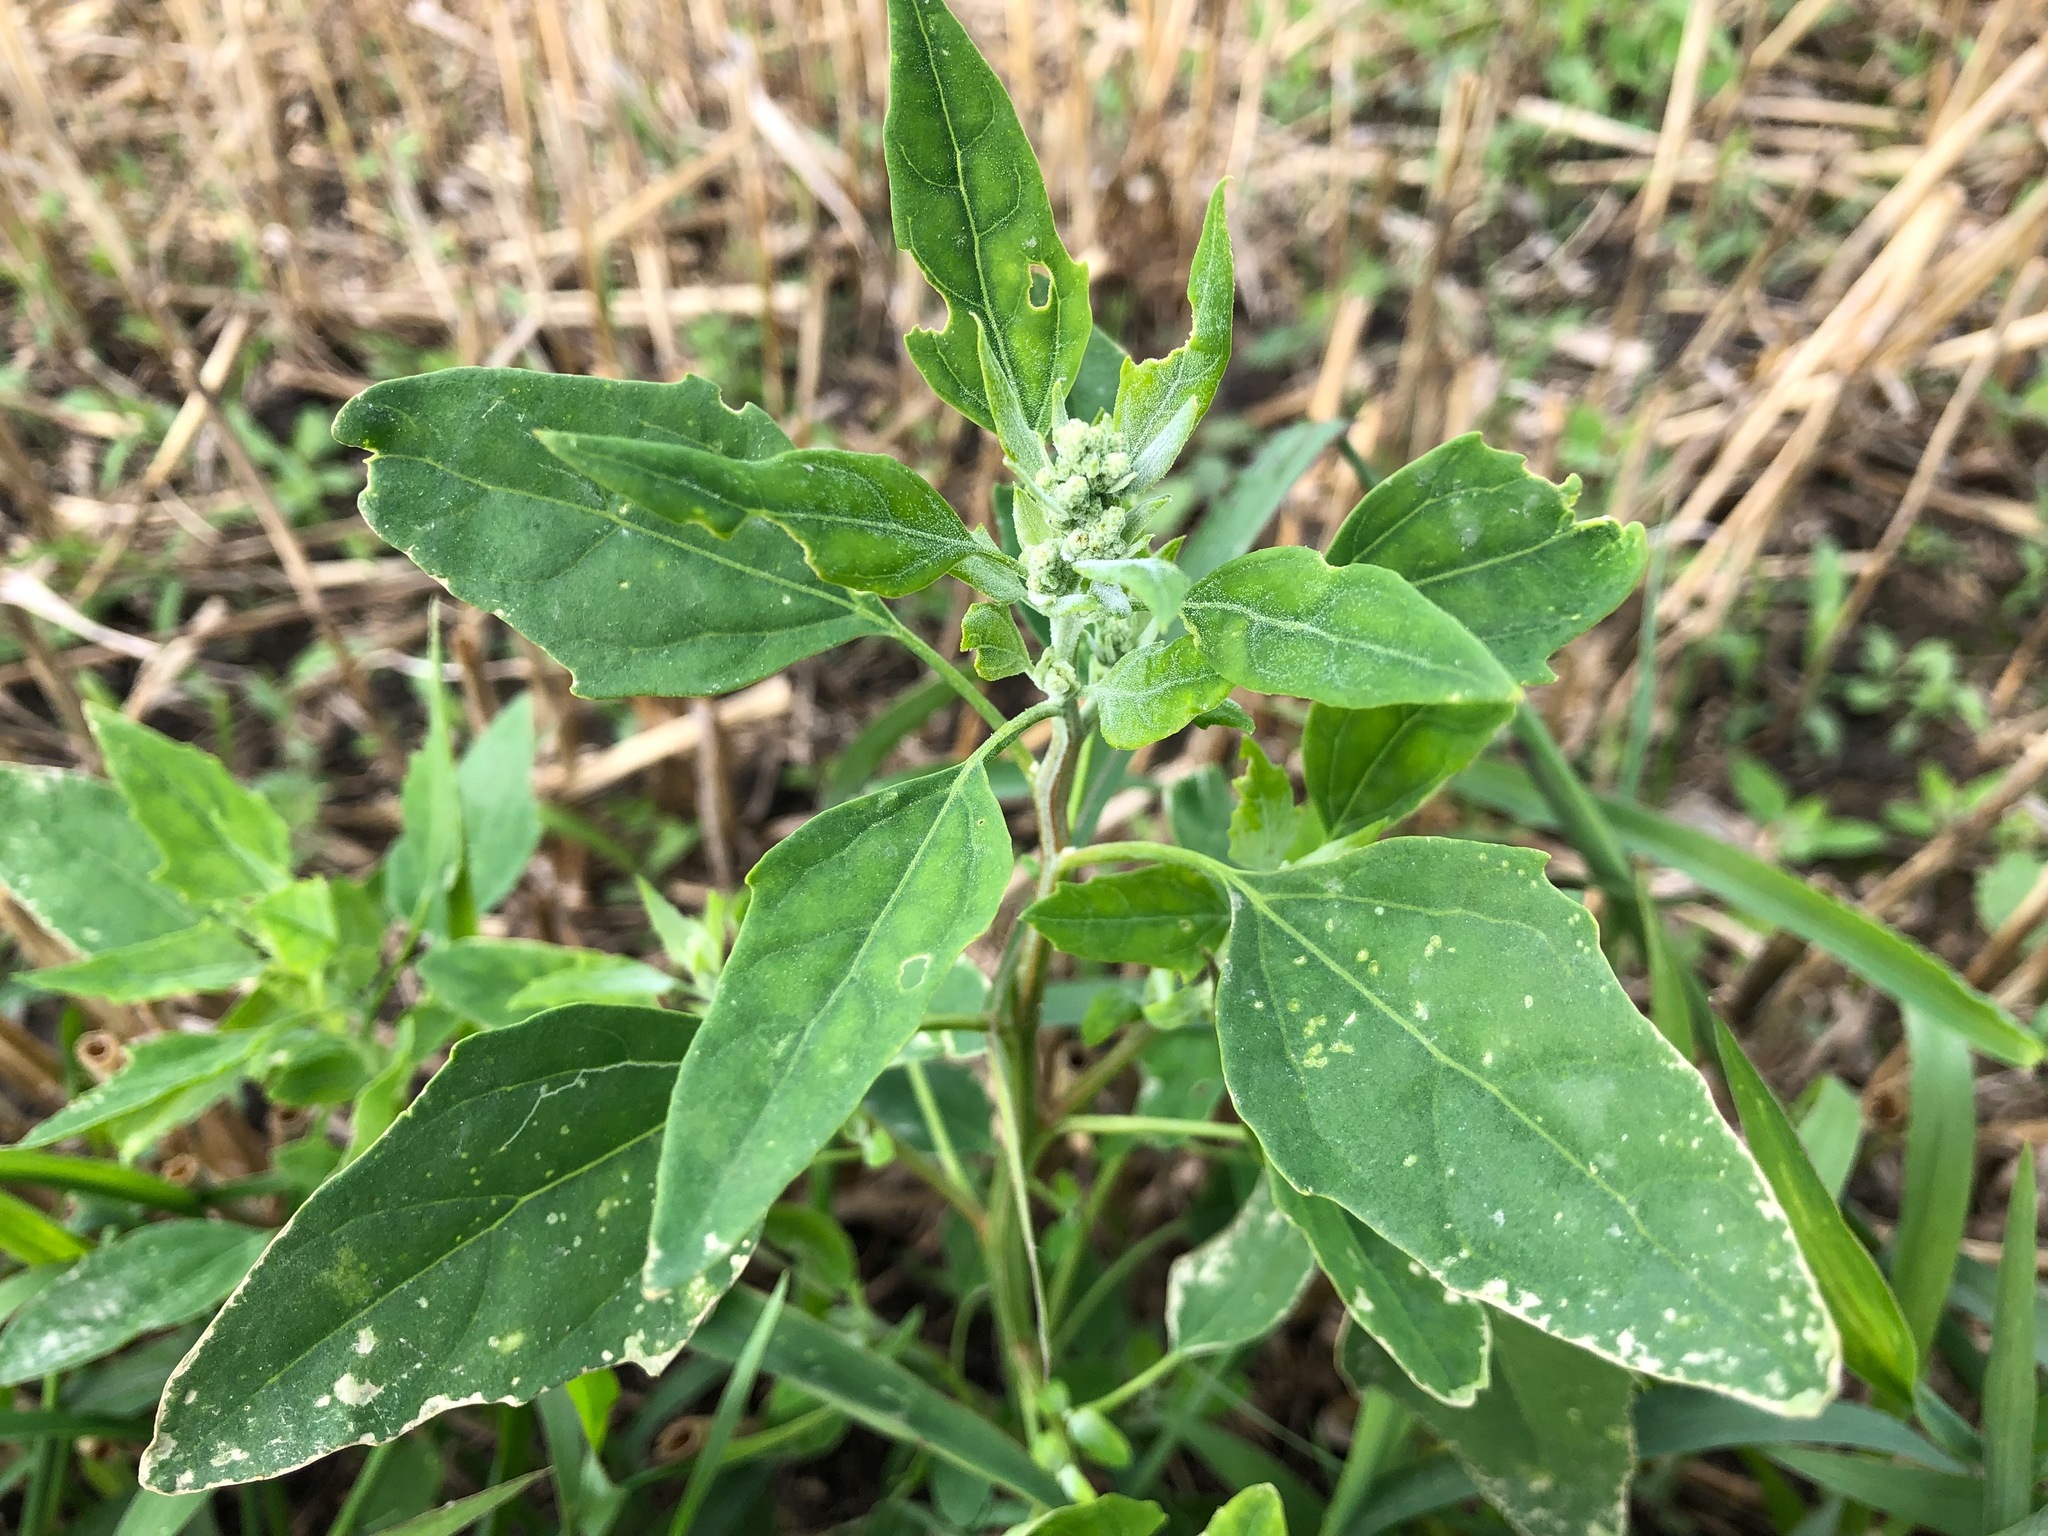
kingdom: Plantae
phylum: Tracheophyta
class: Magnoliopsida
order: Caryophyllales
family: Amaranthaceae
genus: Chenopodium
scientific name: Chenopodium album
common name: Fat-hen
